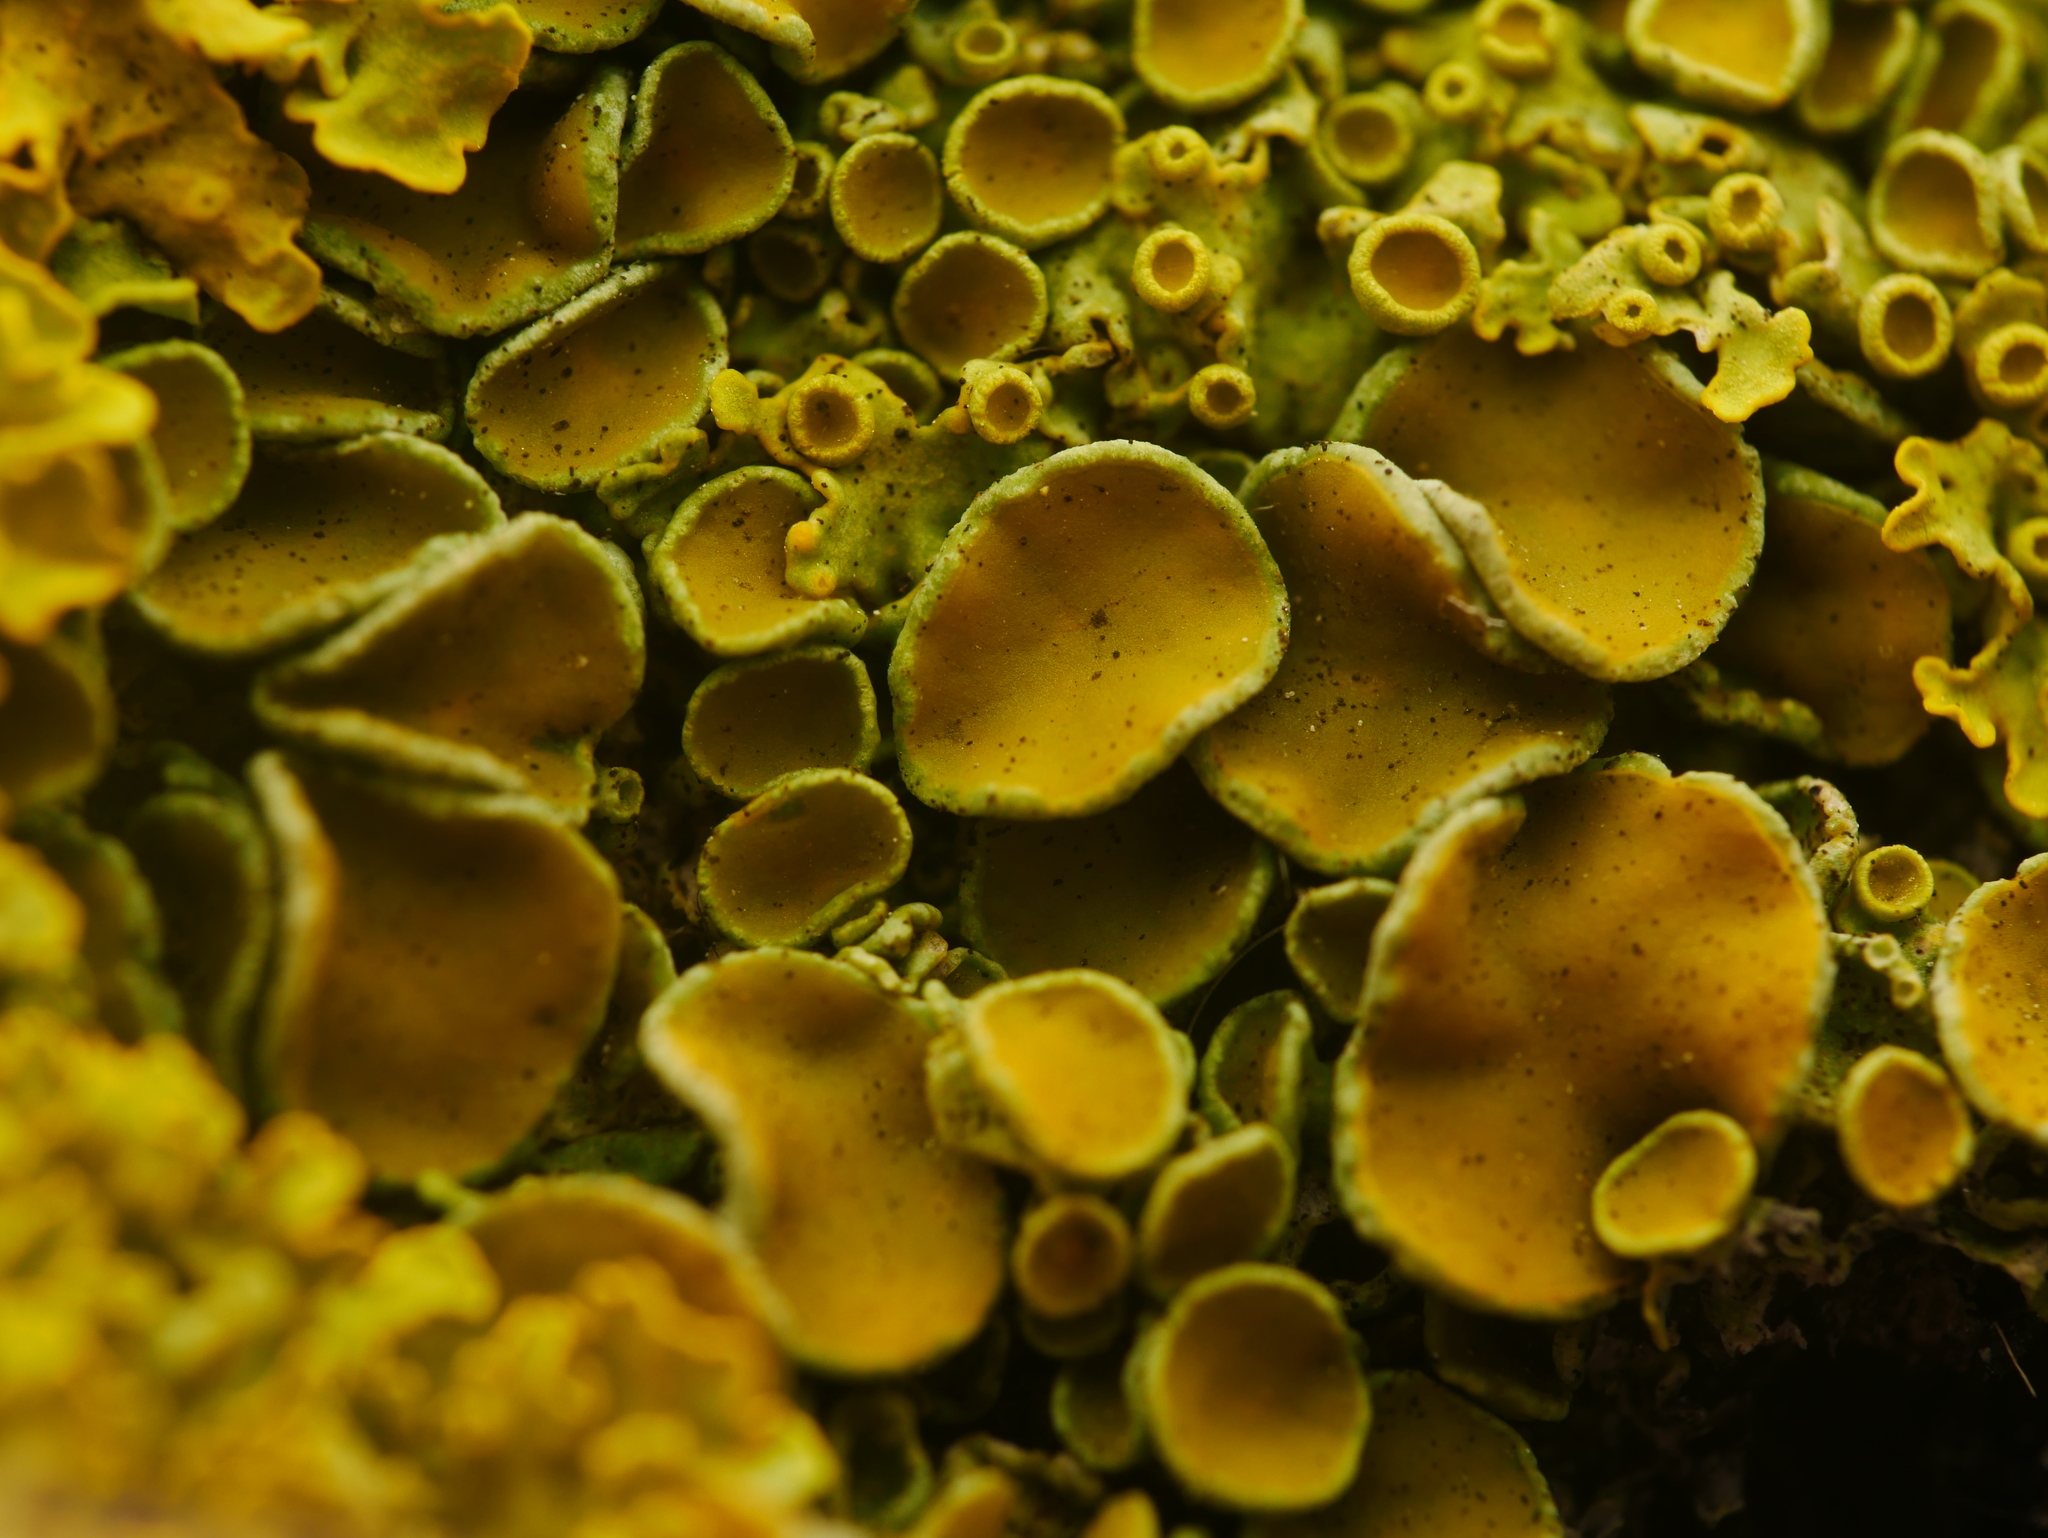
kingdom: Fungi
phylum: Ascomycota
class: Lecanoromycetes
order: Teloschistales
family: Teloschistaceae
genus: Xanthoria
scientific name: Xanthoria parietina
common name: Common orange lichen
